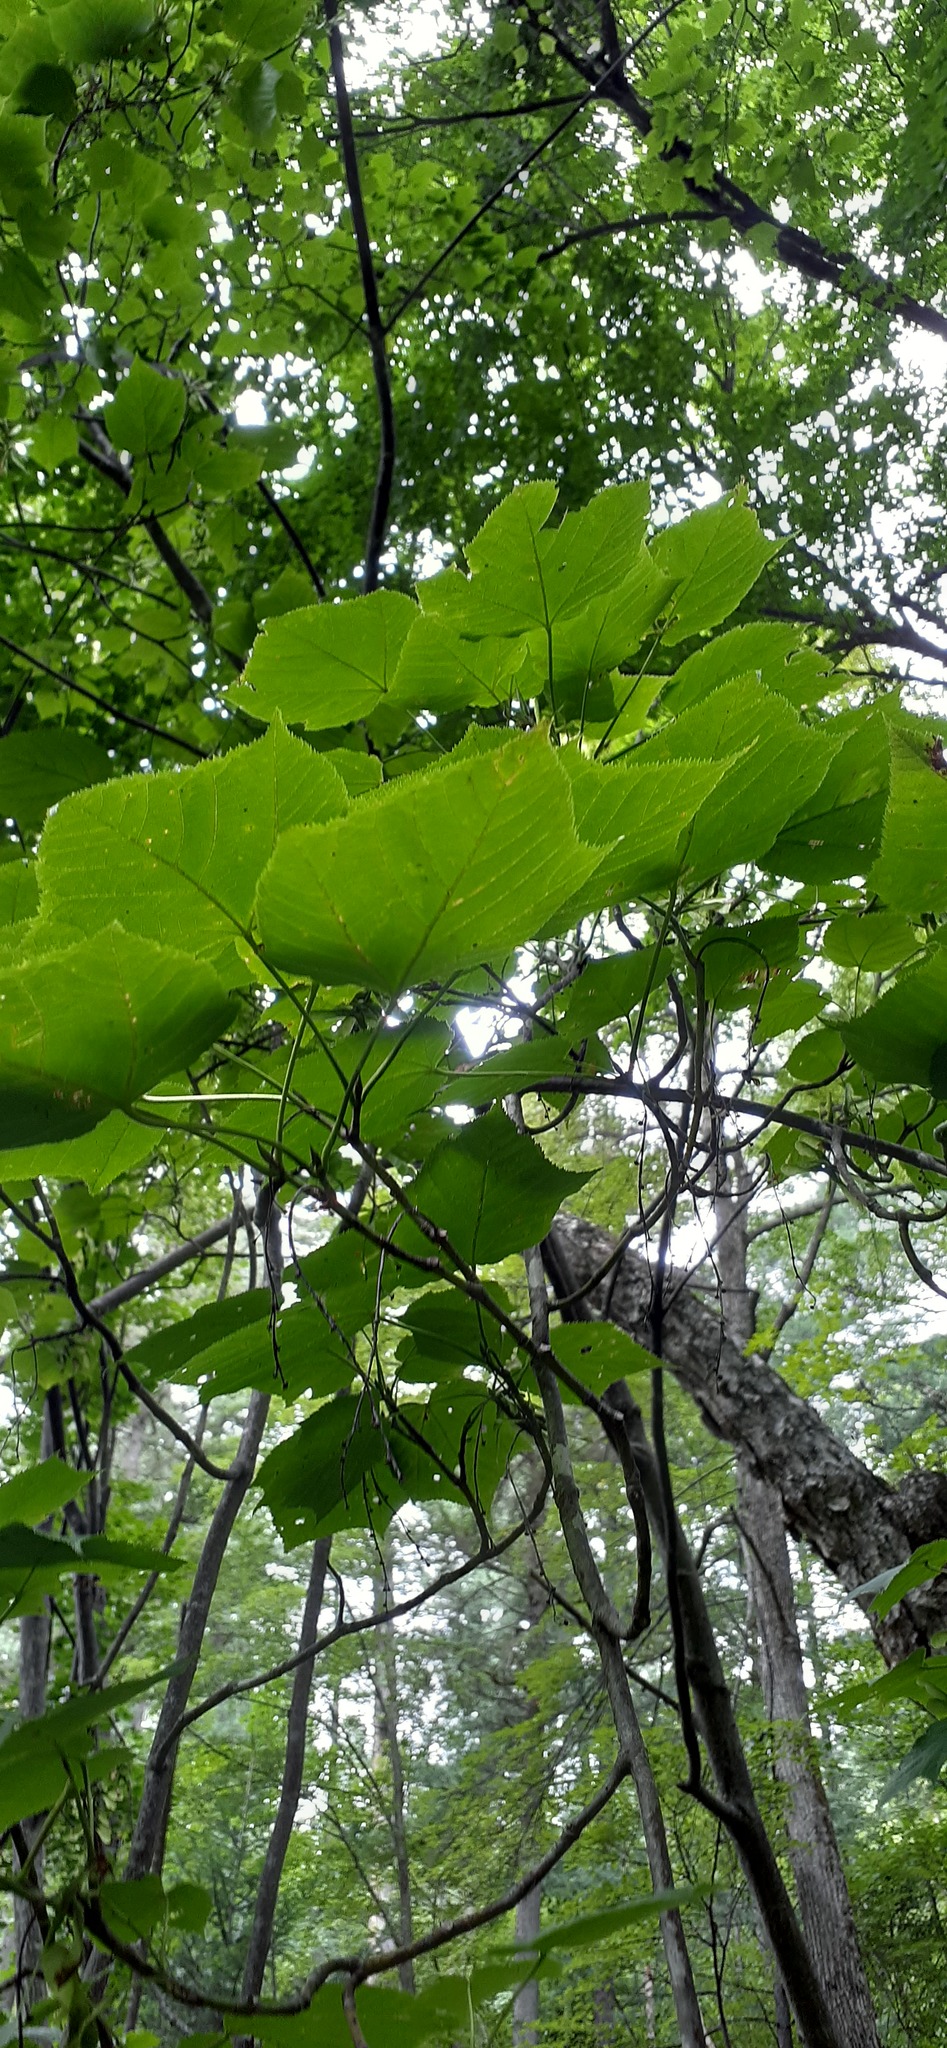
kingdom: Plantae
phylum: Tracheophyta
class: Magnoliopsida
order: Sapindales
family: Sapindaceae
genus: Acer
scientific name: Acer tegmentosum
